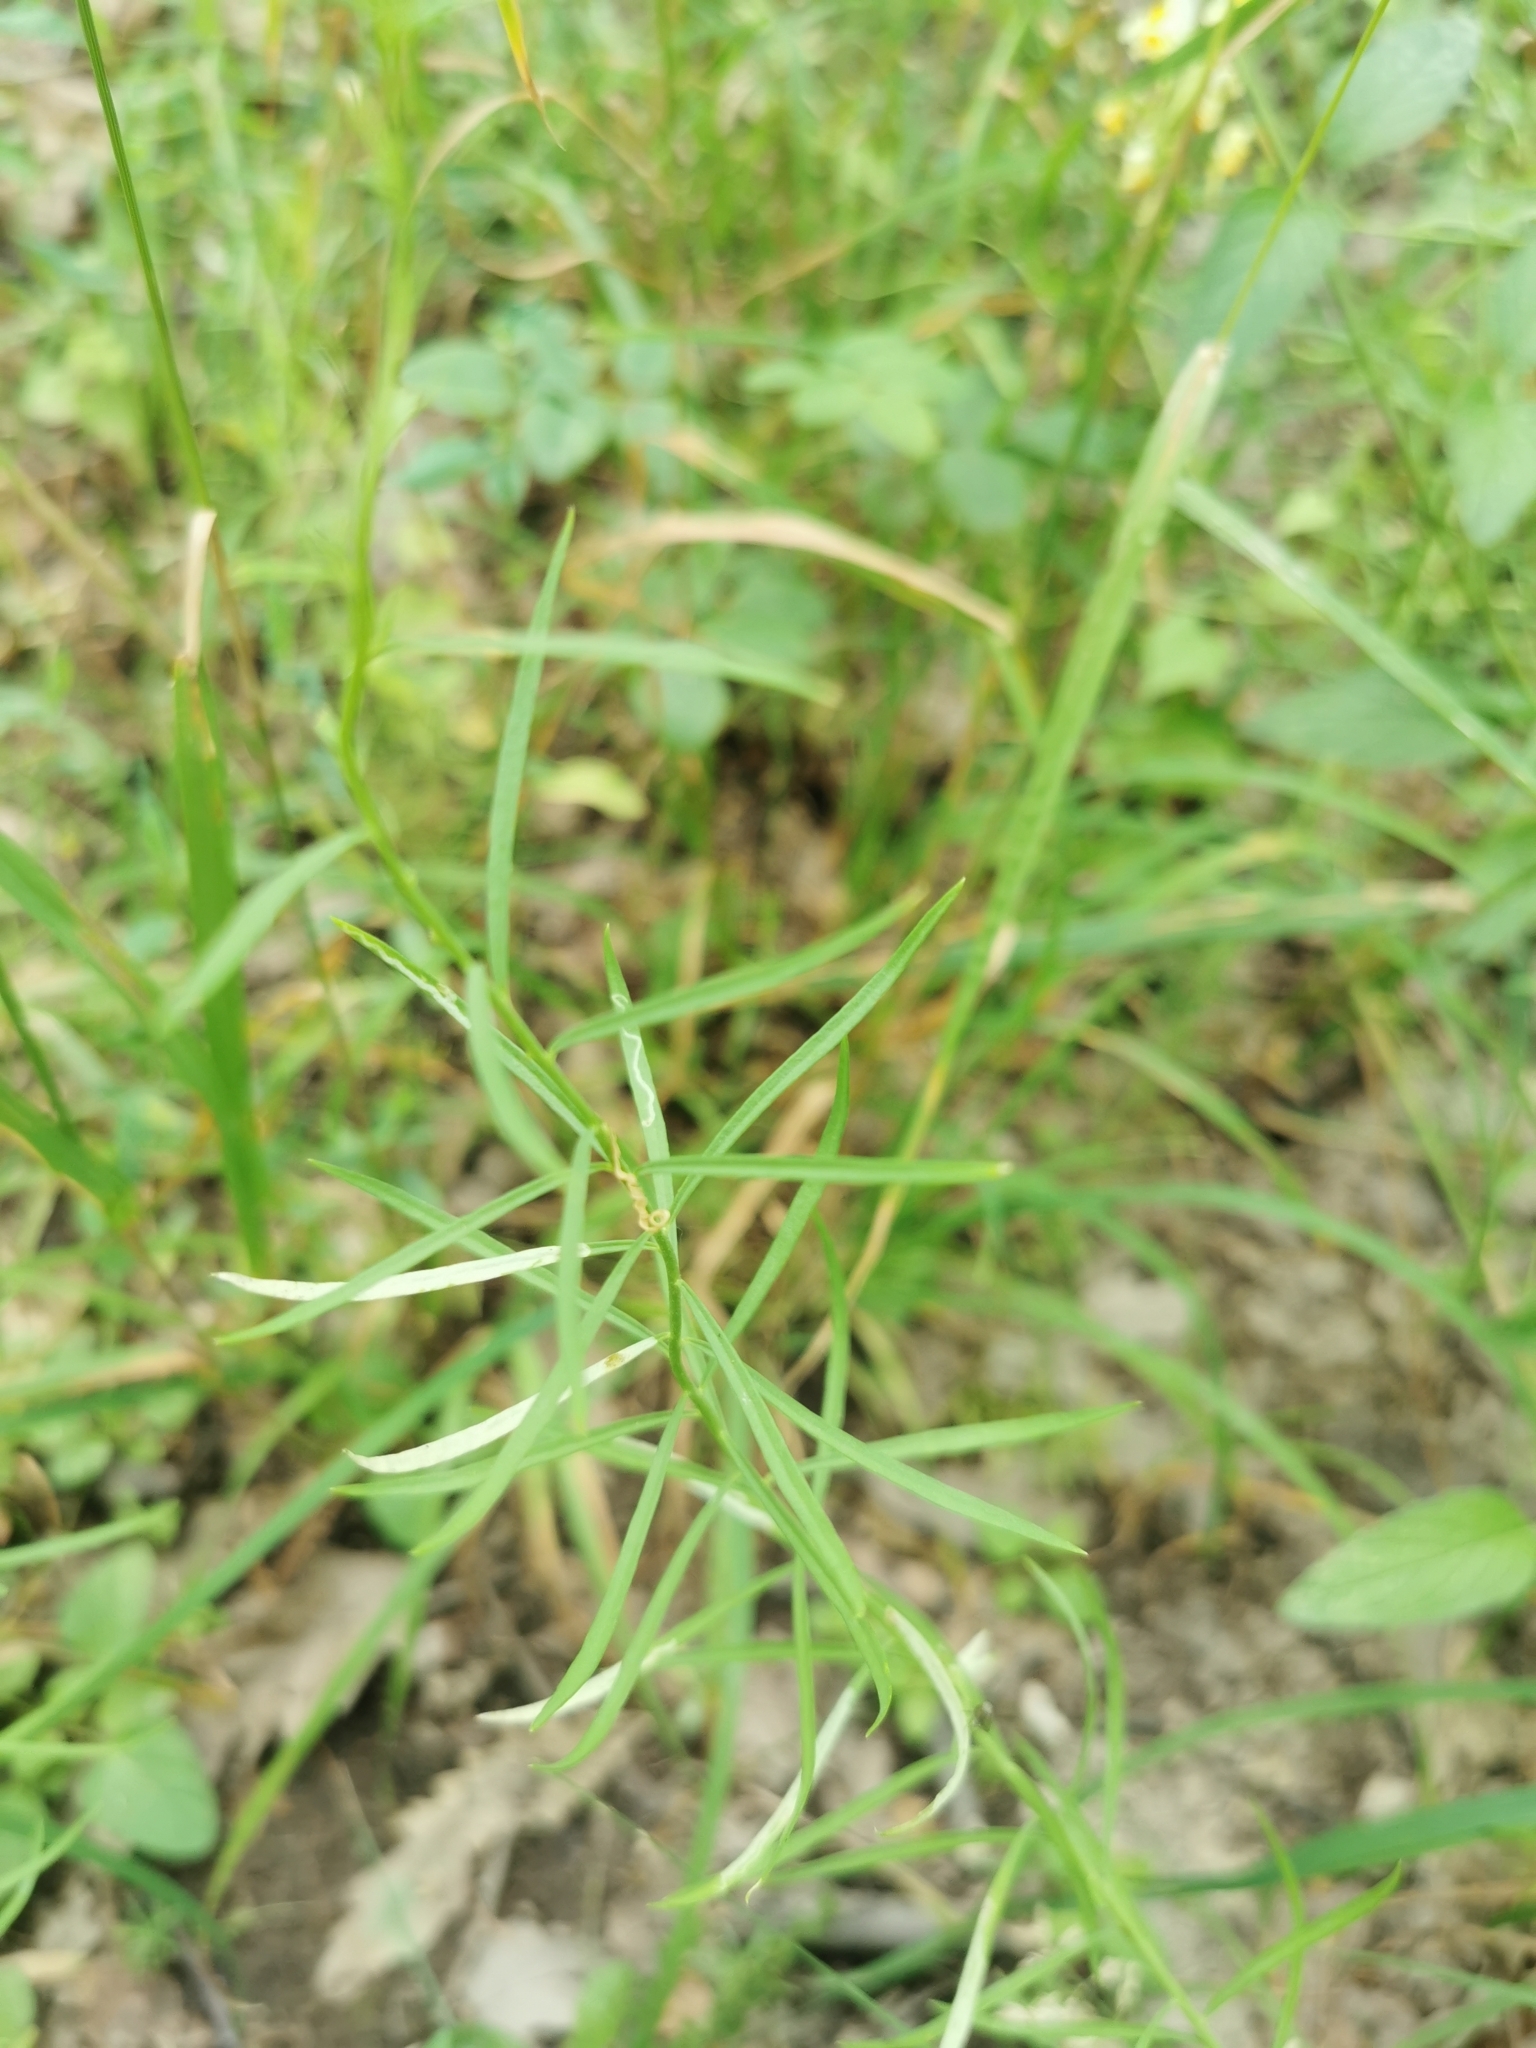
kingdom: Plantae
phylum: Tracheophyta
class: Magnoliopsida
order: Lamiales
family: Plantaginaceae
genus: Linaria
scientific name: Linaria vulgaris
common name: Butter and eggs
